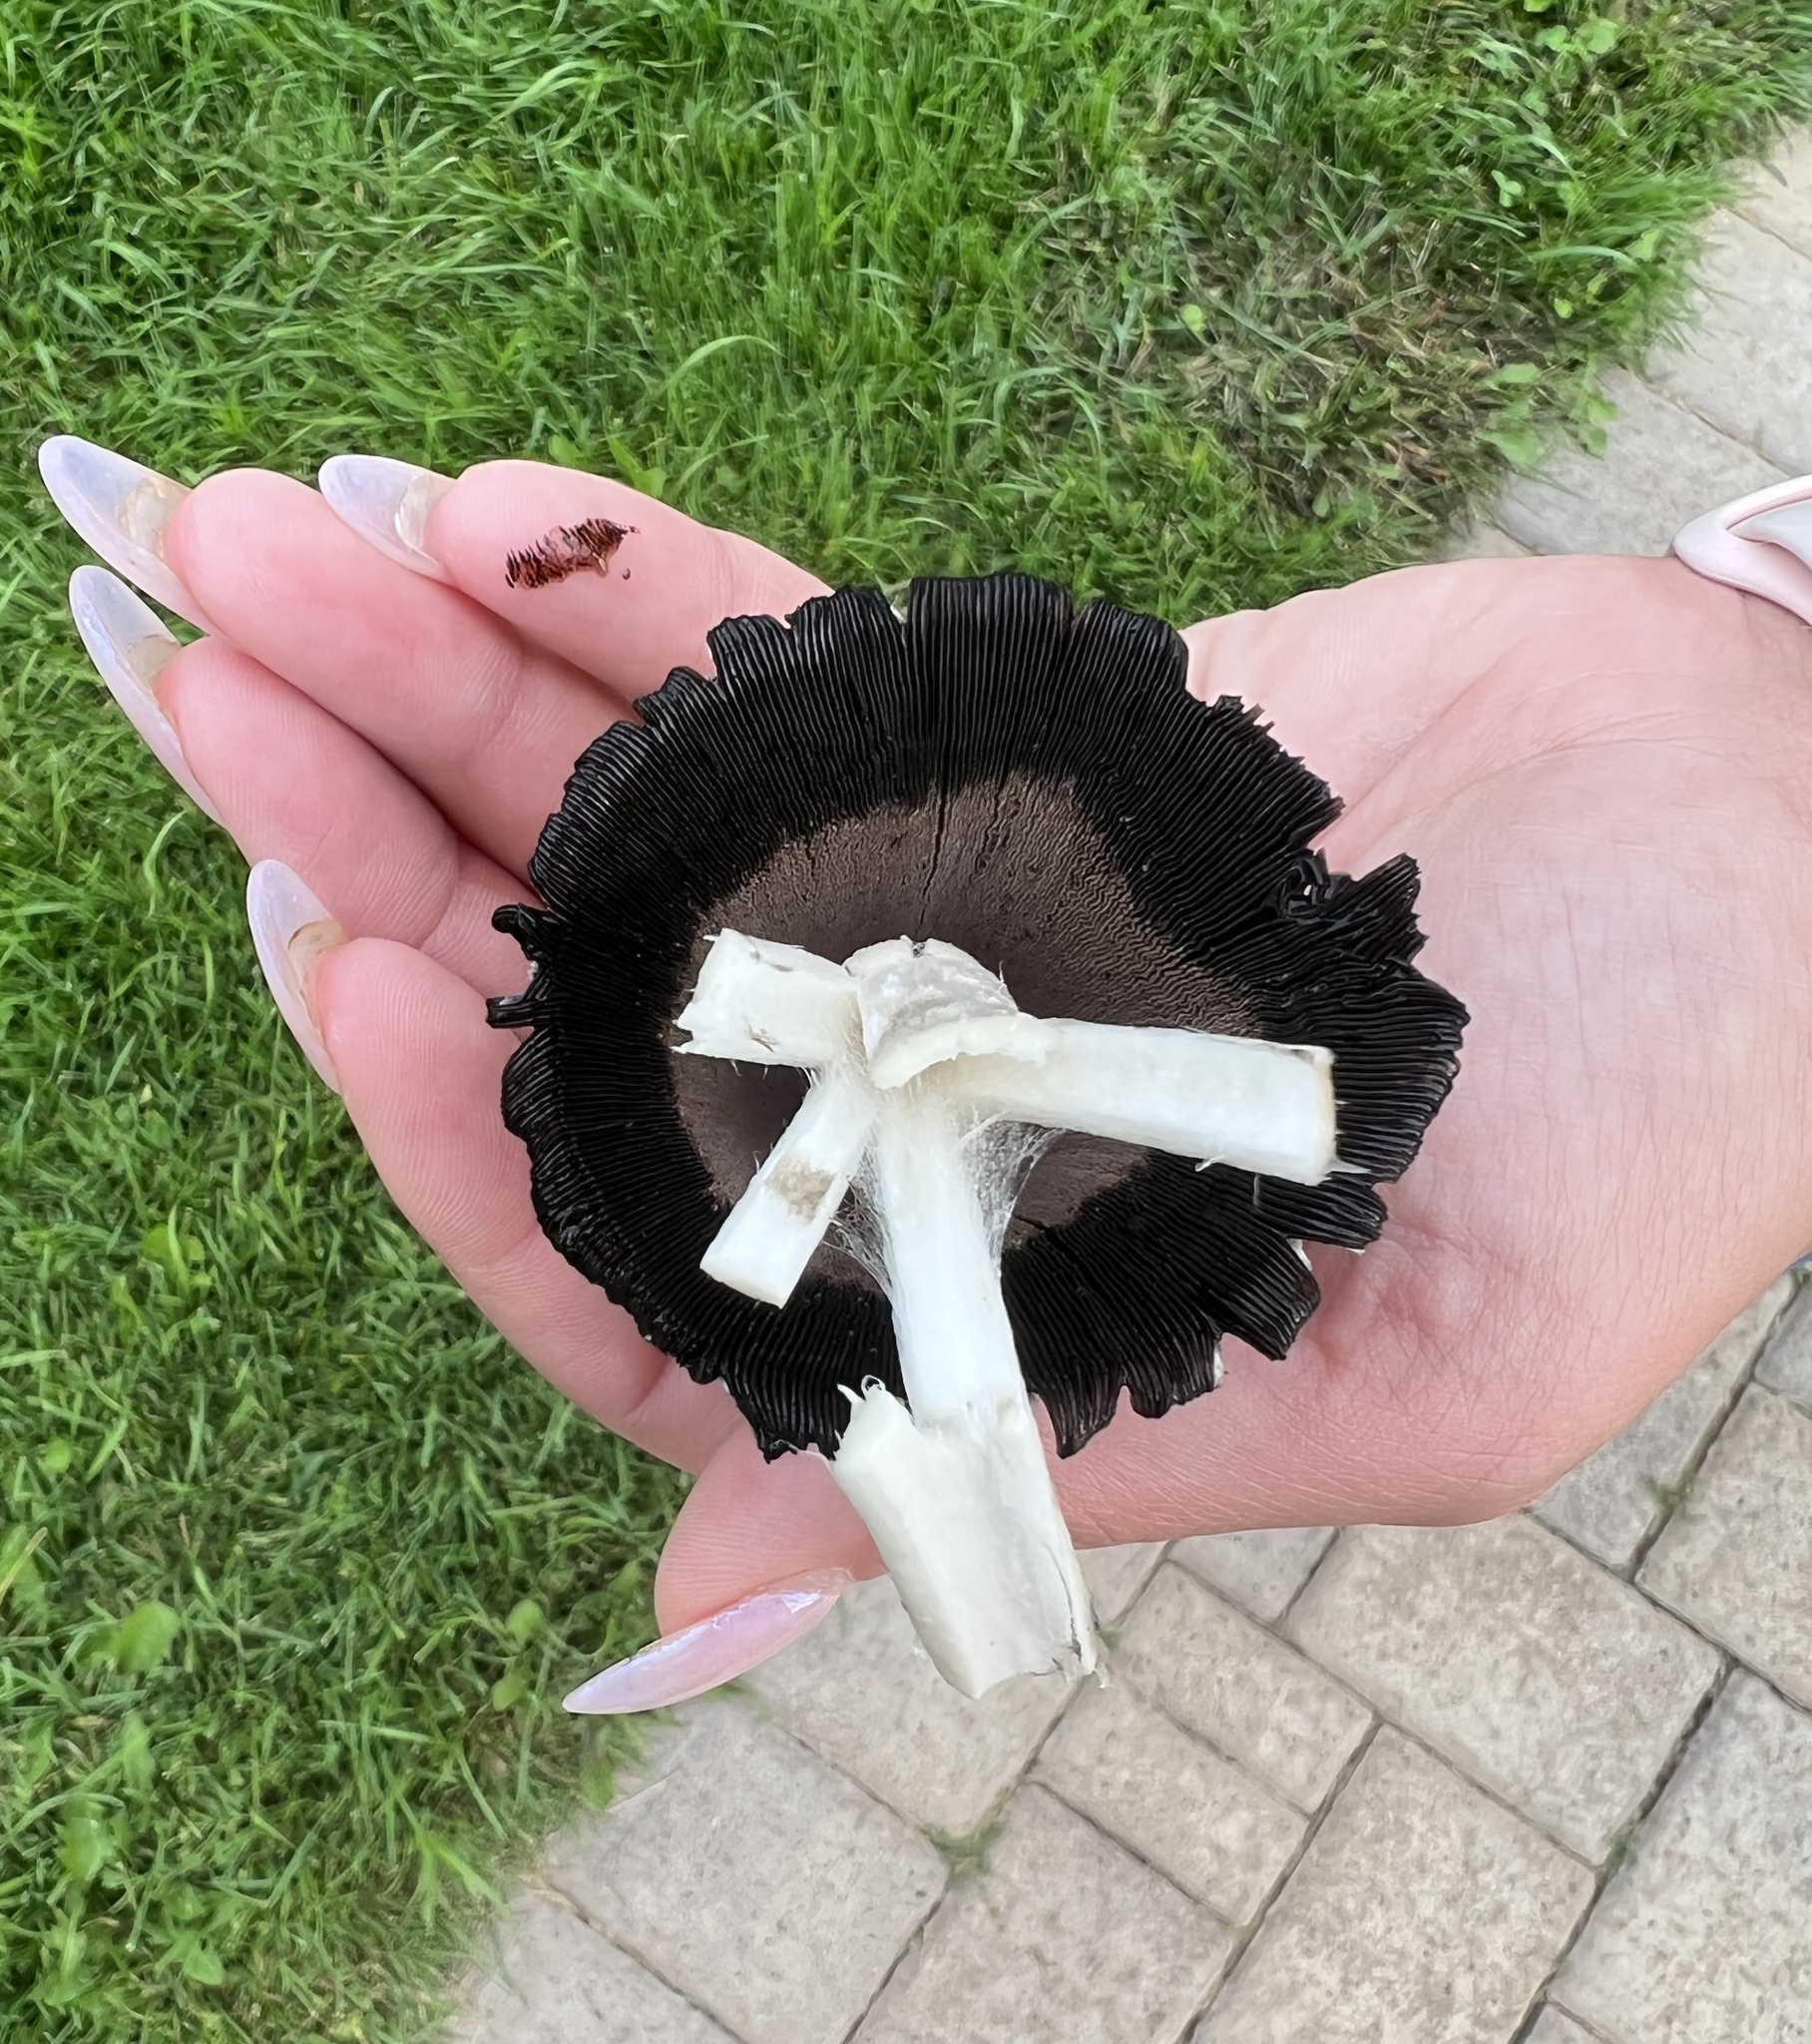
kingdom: Fungi
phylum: Basidiomycota
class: Agaricomycetes
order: Agaricales
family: Agaricaceae
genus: Coprinus
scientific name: Coprinus comatus
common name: Lawyer's wig
